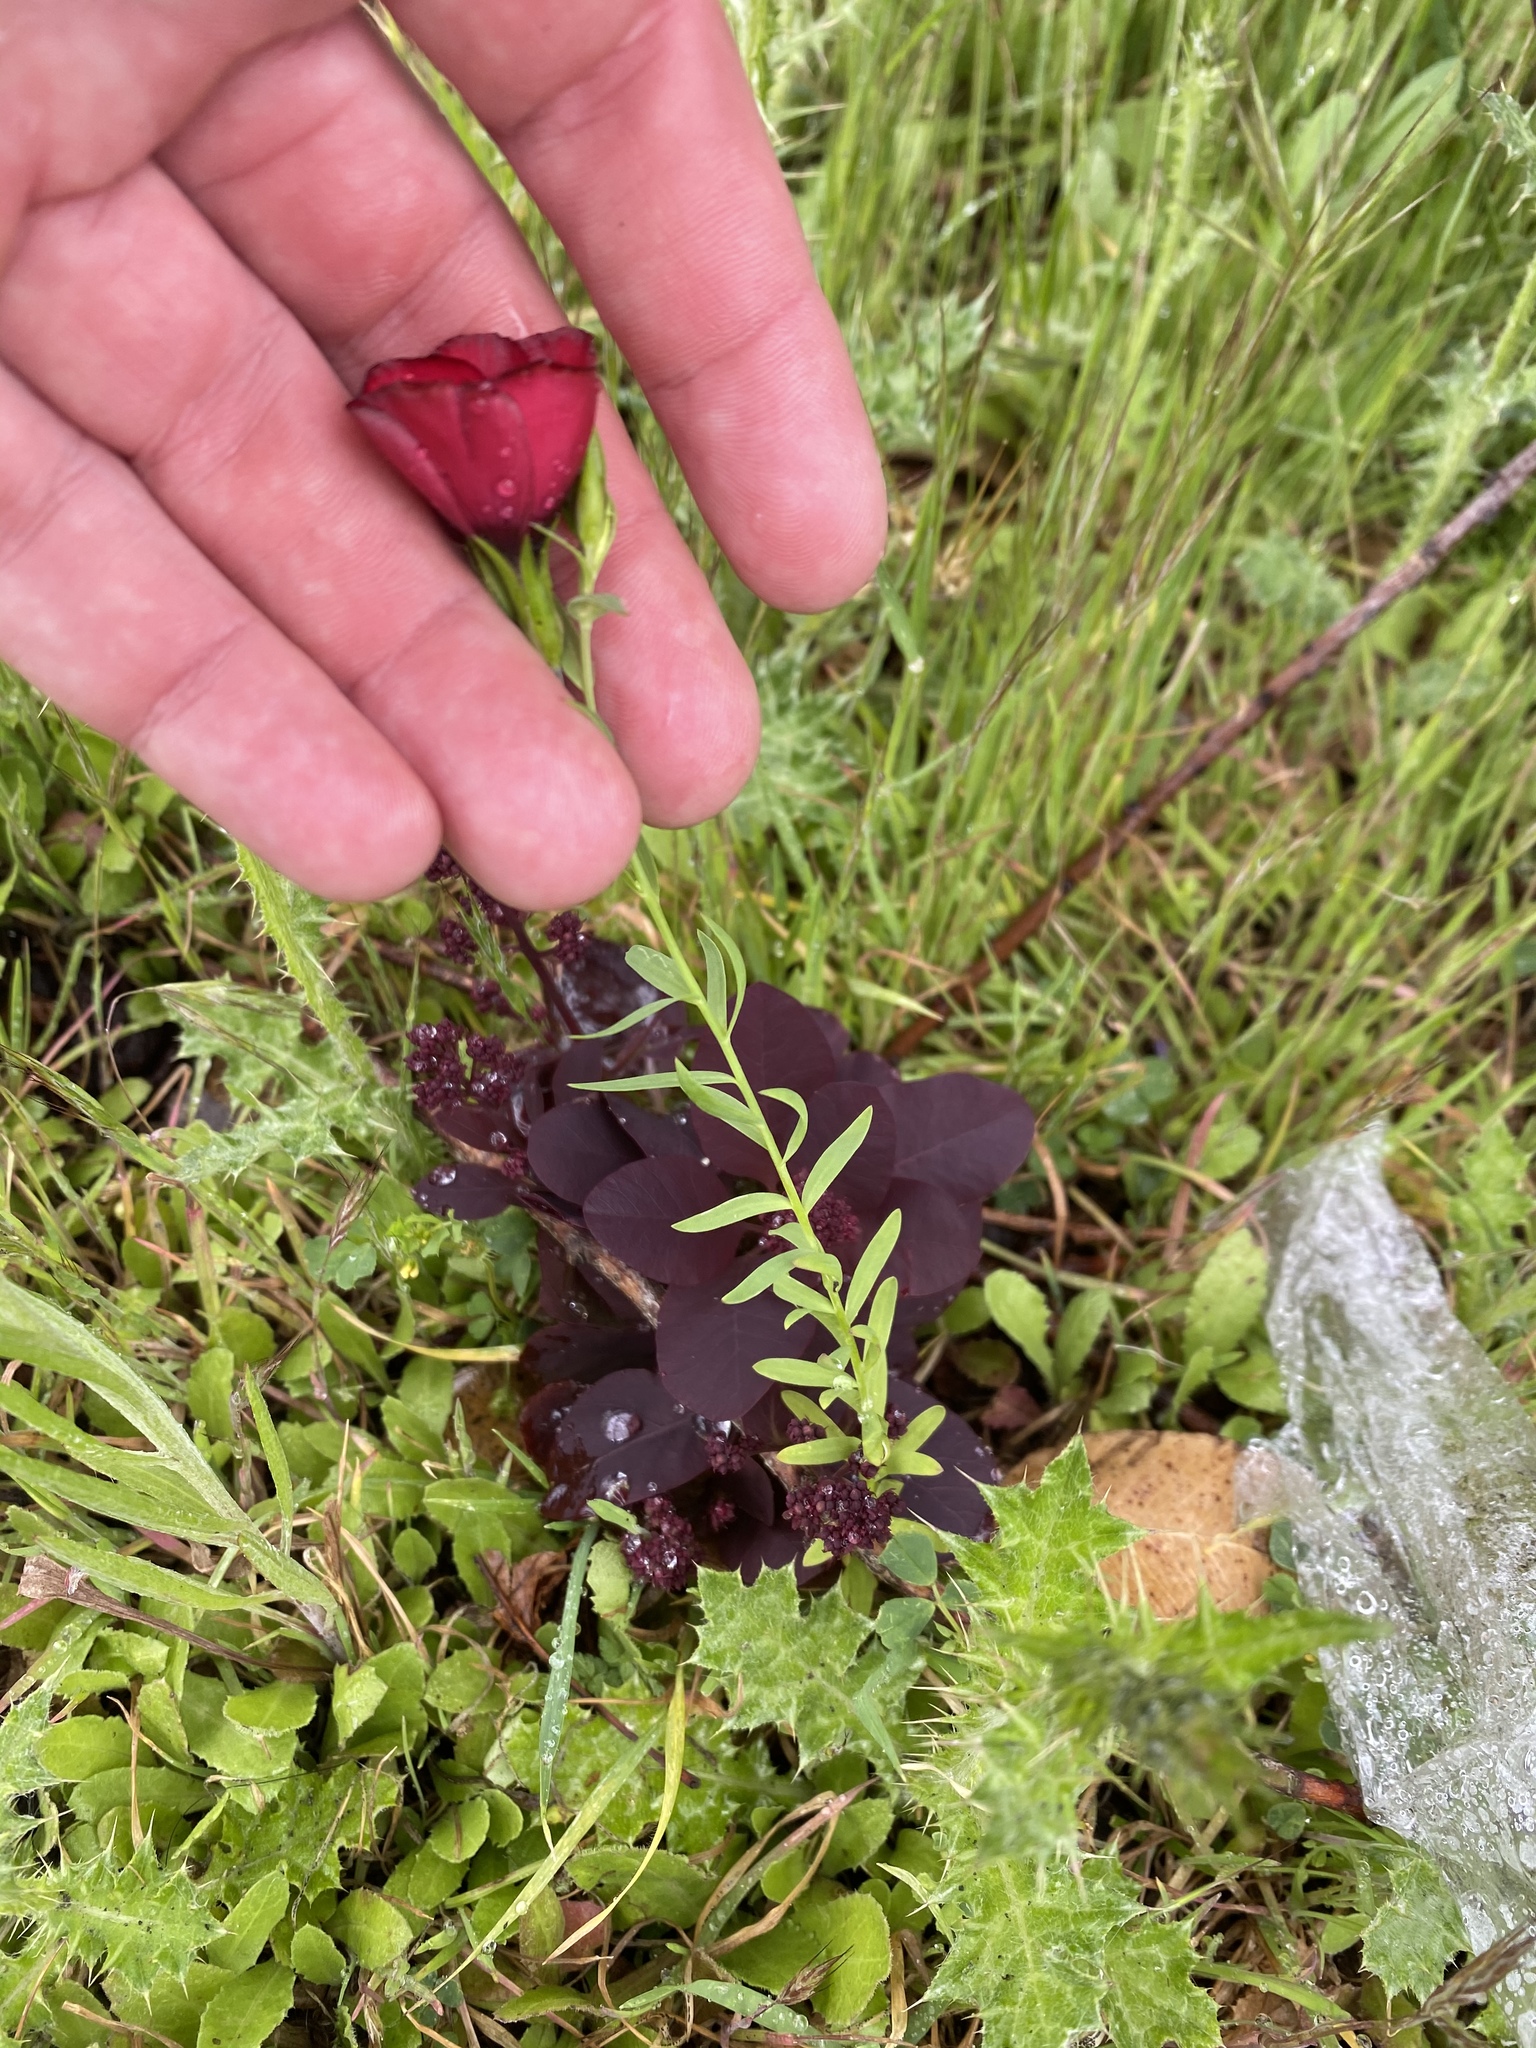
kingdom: Plantae
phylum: Tracheophyta
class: Magnoliopsida
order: Malpighiales
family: Linaceae
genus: Linum
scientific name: Linum grandiflorum
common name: Crimson flax
